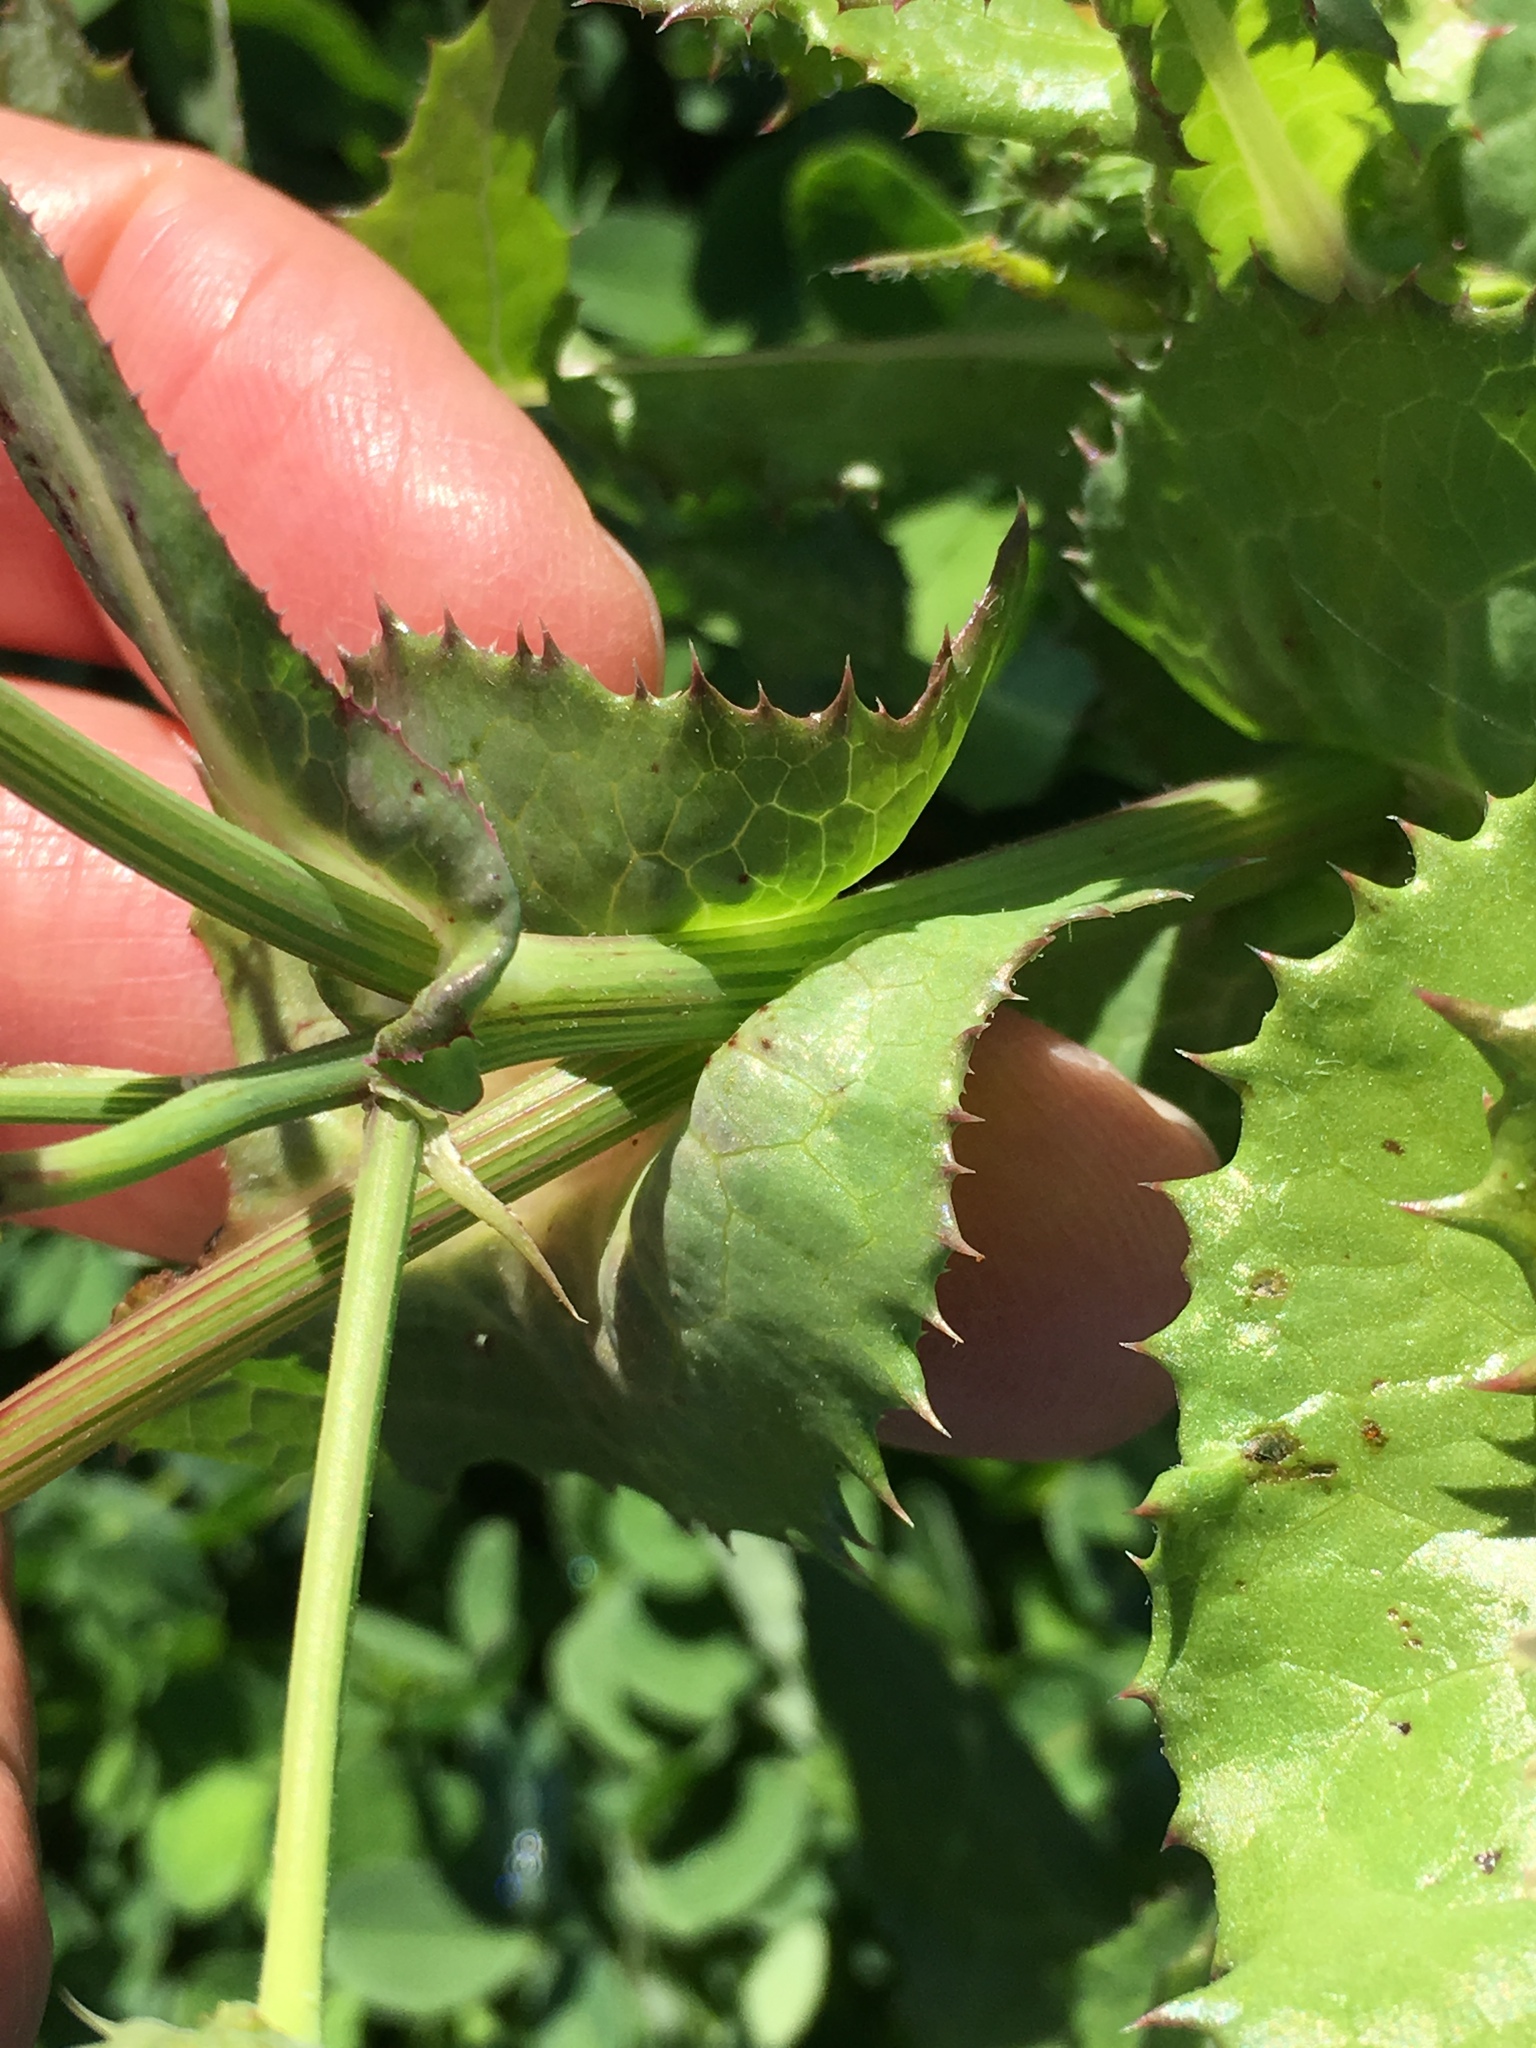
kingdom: Plantae
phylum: Tracheophyta
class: Magnoliopsida
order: Asterales
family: Asteraceae
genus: Sonchus
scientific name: Sonchus oleraceus
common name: Common sowthistle
